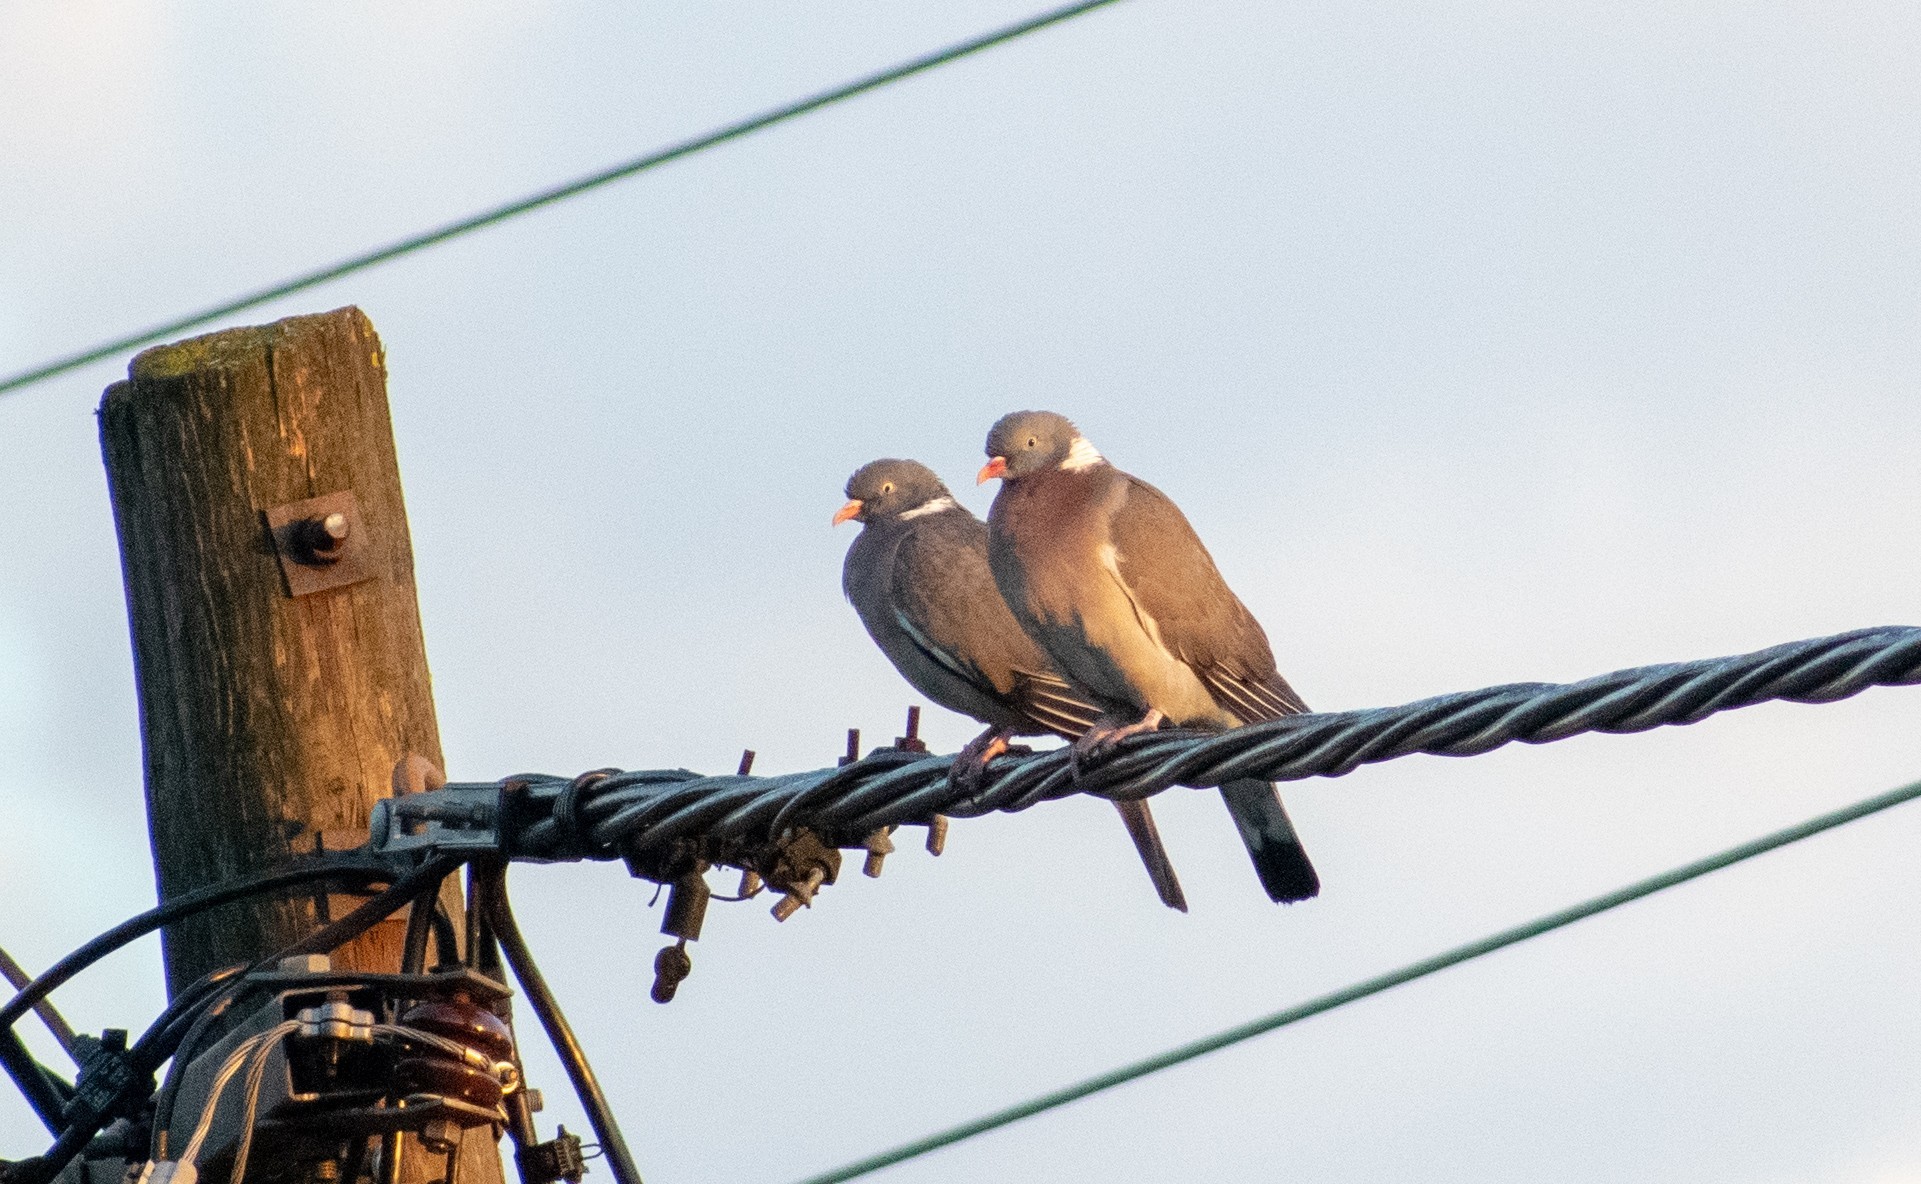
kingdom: Animalia
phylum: Chordata
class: Aves
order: Columbiformes
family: Columbidae
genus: Columba
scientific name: Columba palumbus
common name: Common wood pigeon
